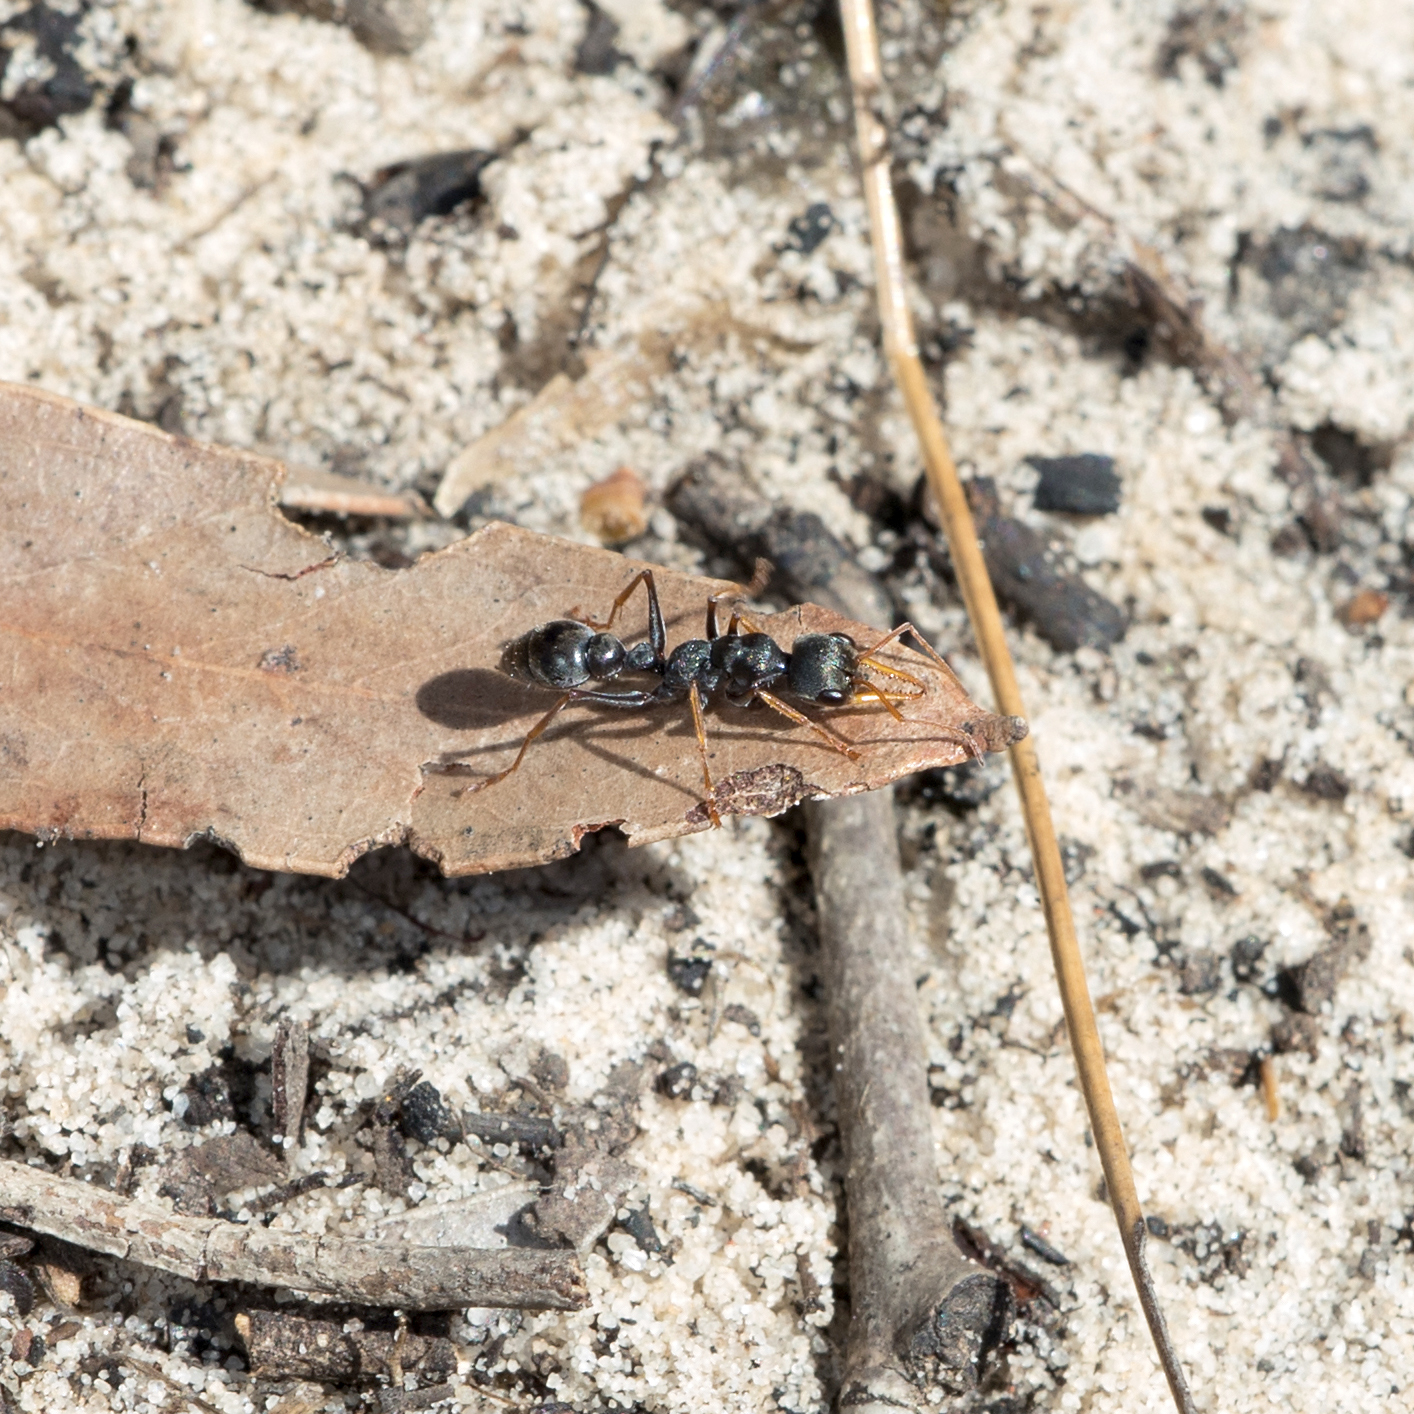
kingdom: Animalia
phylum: Arthropoda
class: Insecta
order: Hymenoptera
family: Formicidae
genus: Myrmecia
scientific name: Myrmecia pilosula
